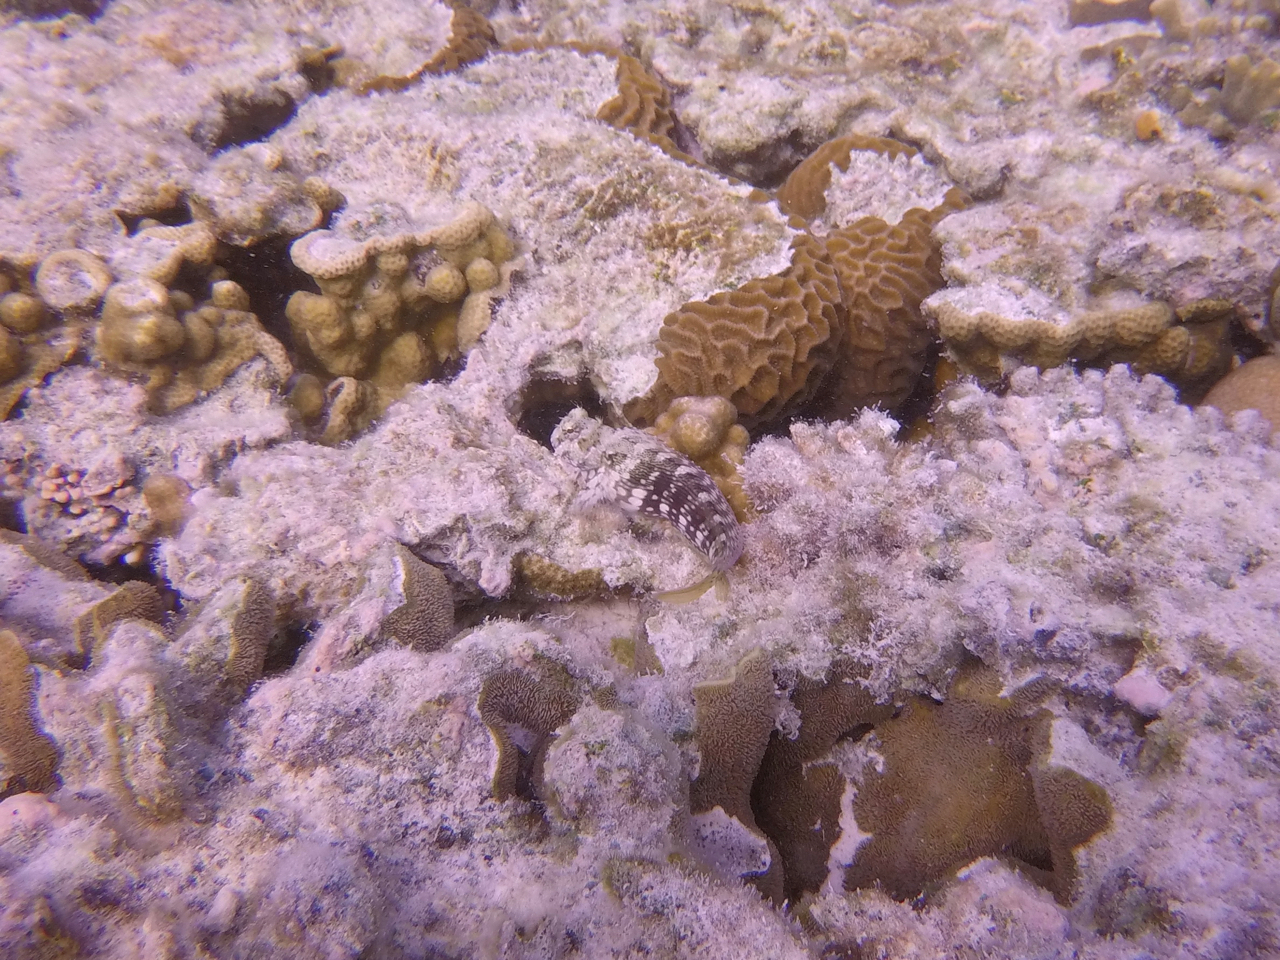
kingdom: Animalia
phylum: Chordata
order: Perciformes
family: Blenniidae
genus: Salarias
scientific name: Salarias fasciatus
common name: Jewelled blenny
